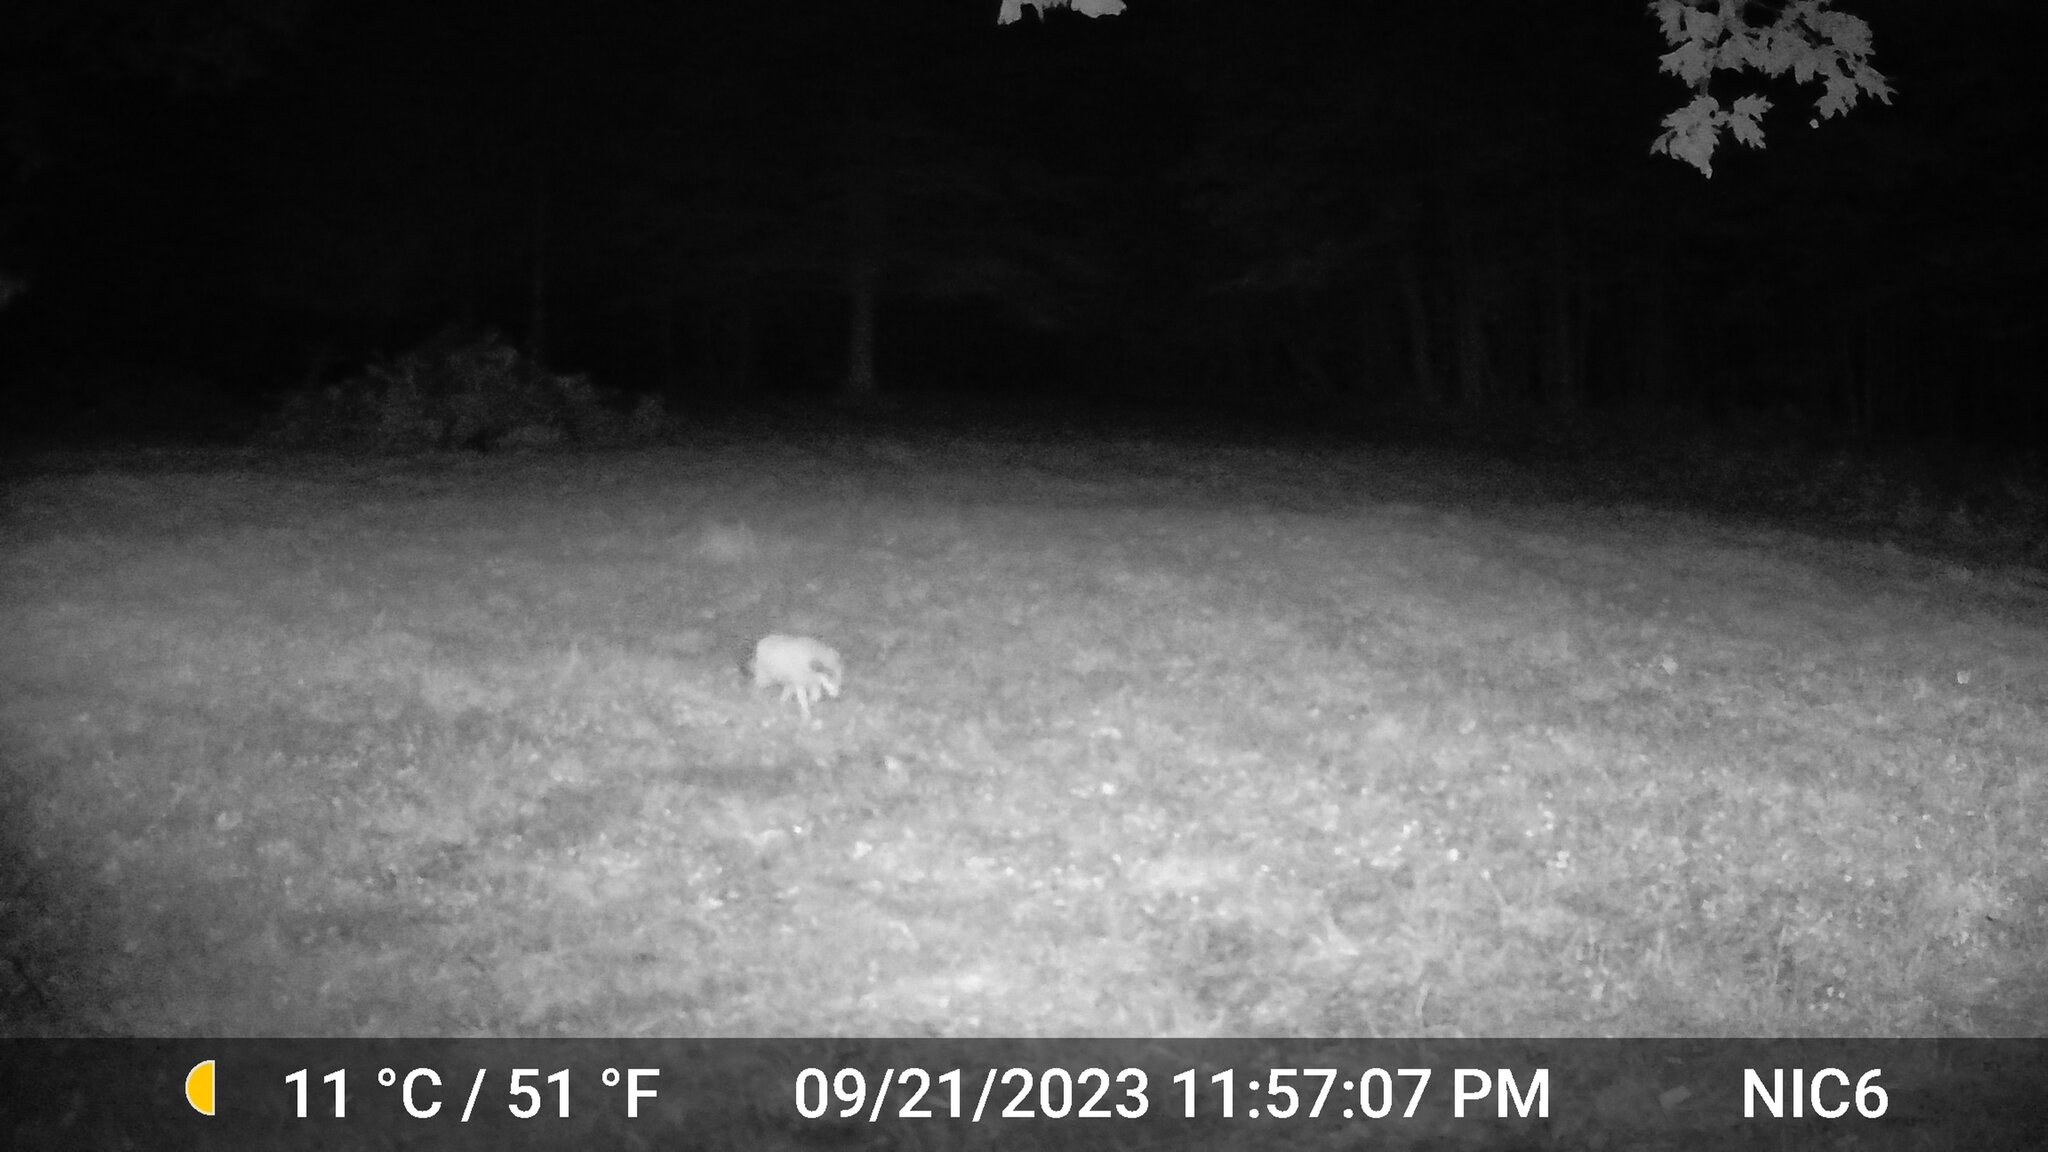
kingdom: Animalia
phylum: Chordata
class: Mammalia
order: Carnivora
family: Canidae
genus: Vulpes
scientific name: Vulpes vulpes
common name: Red fox
